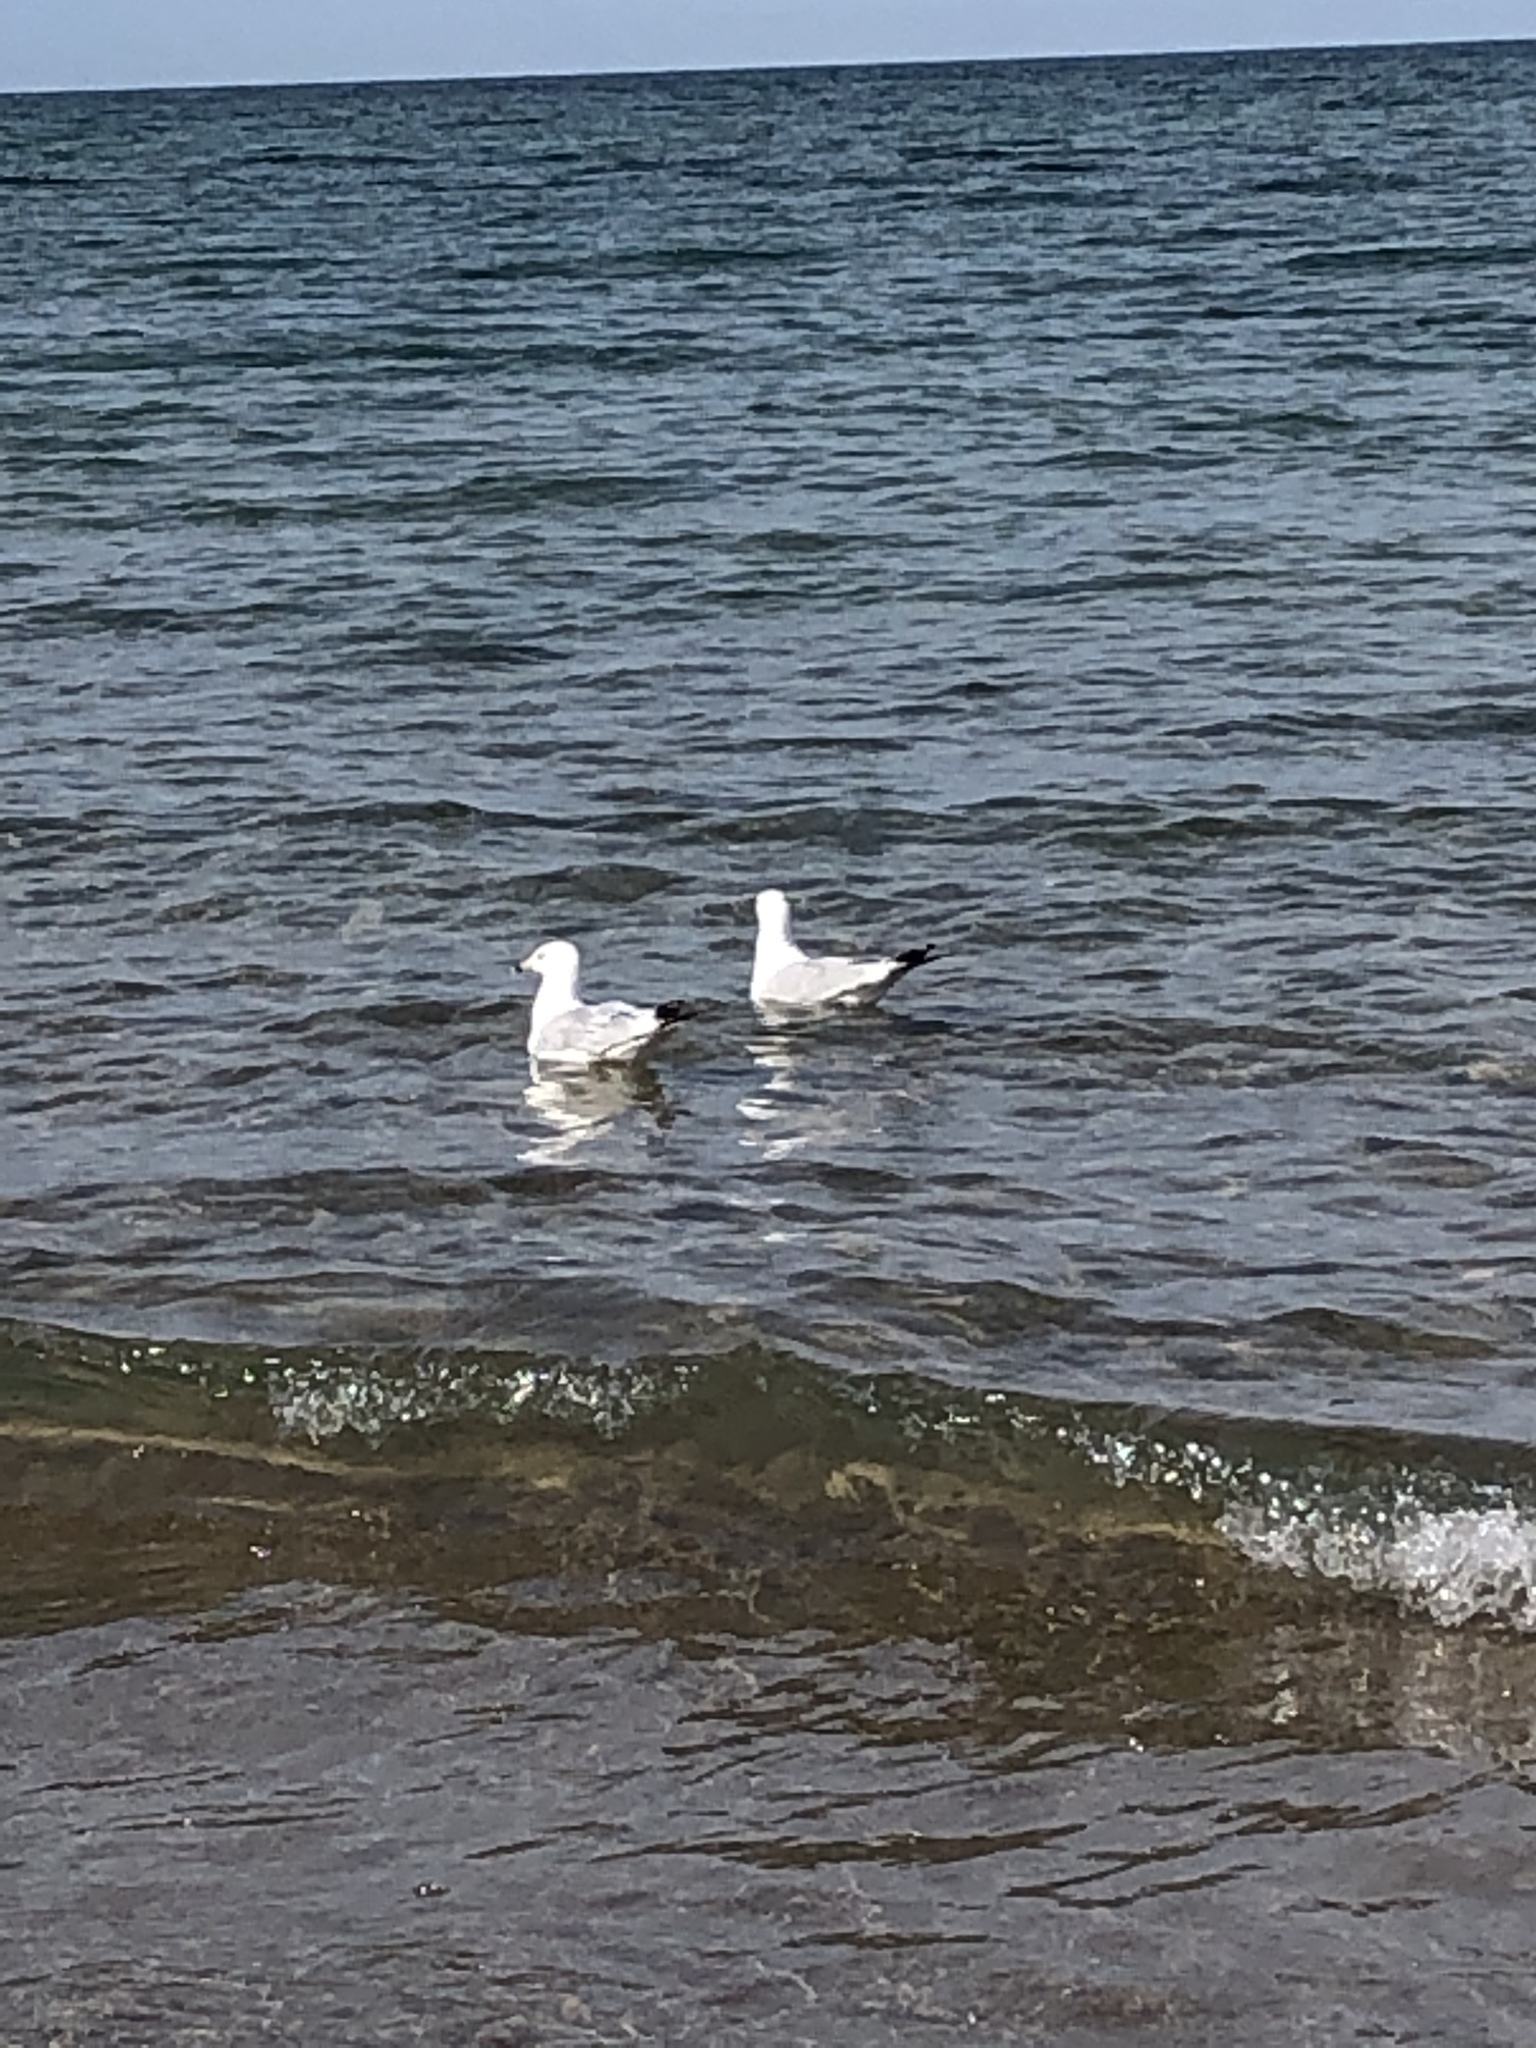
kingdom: Animalia
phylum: Chordata
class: Aves
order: Charadriiformes
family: Laridae
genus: Larus
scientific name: Larus delawarensis
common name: Ring-billed gull
